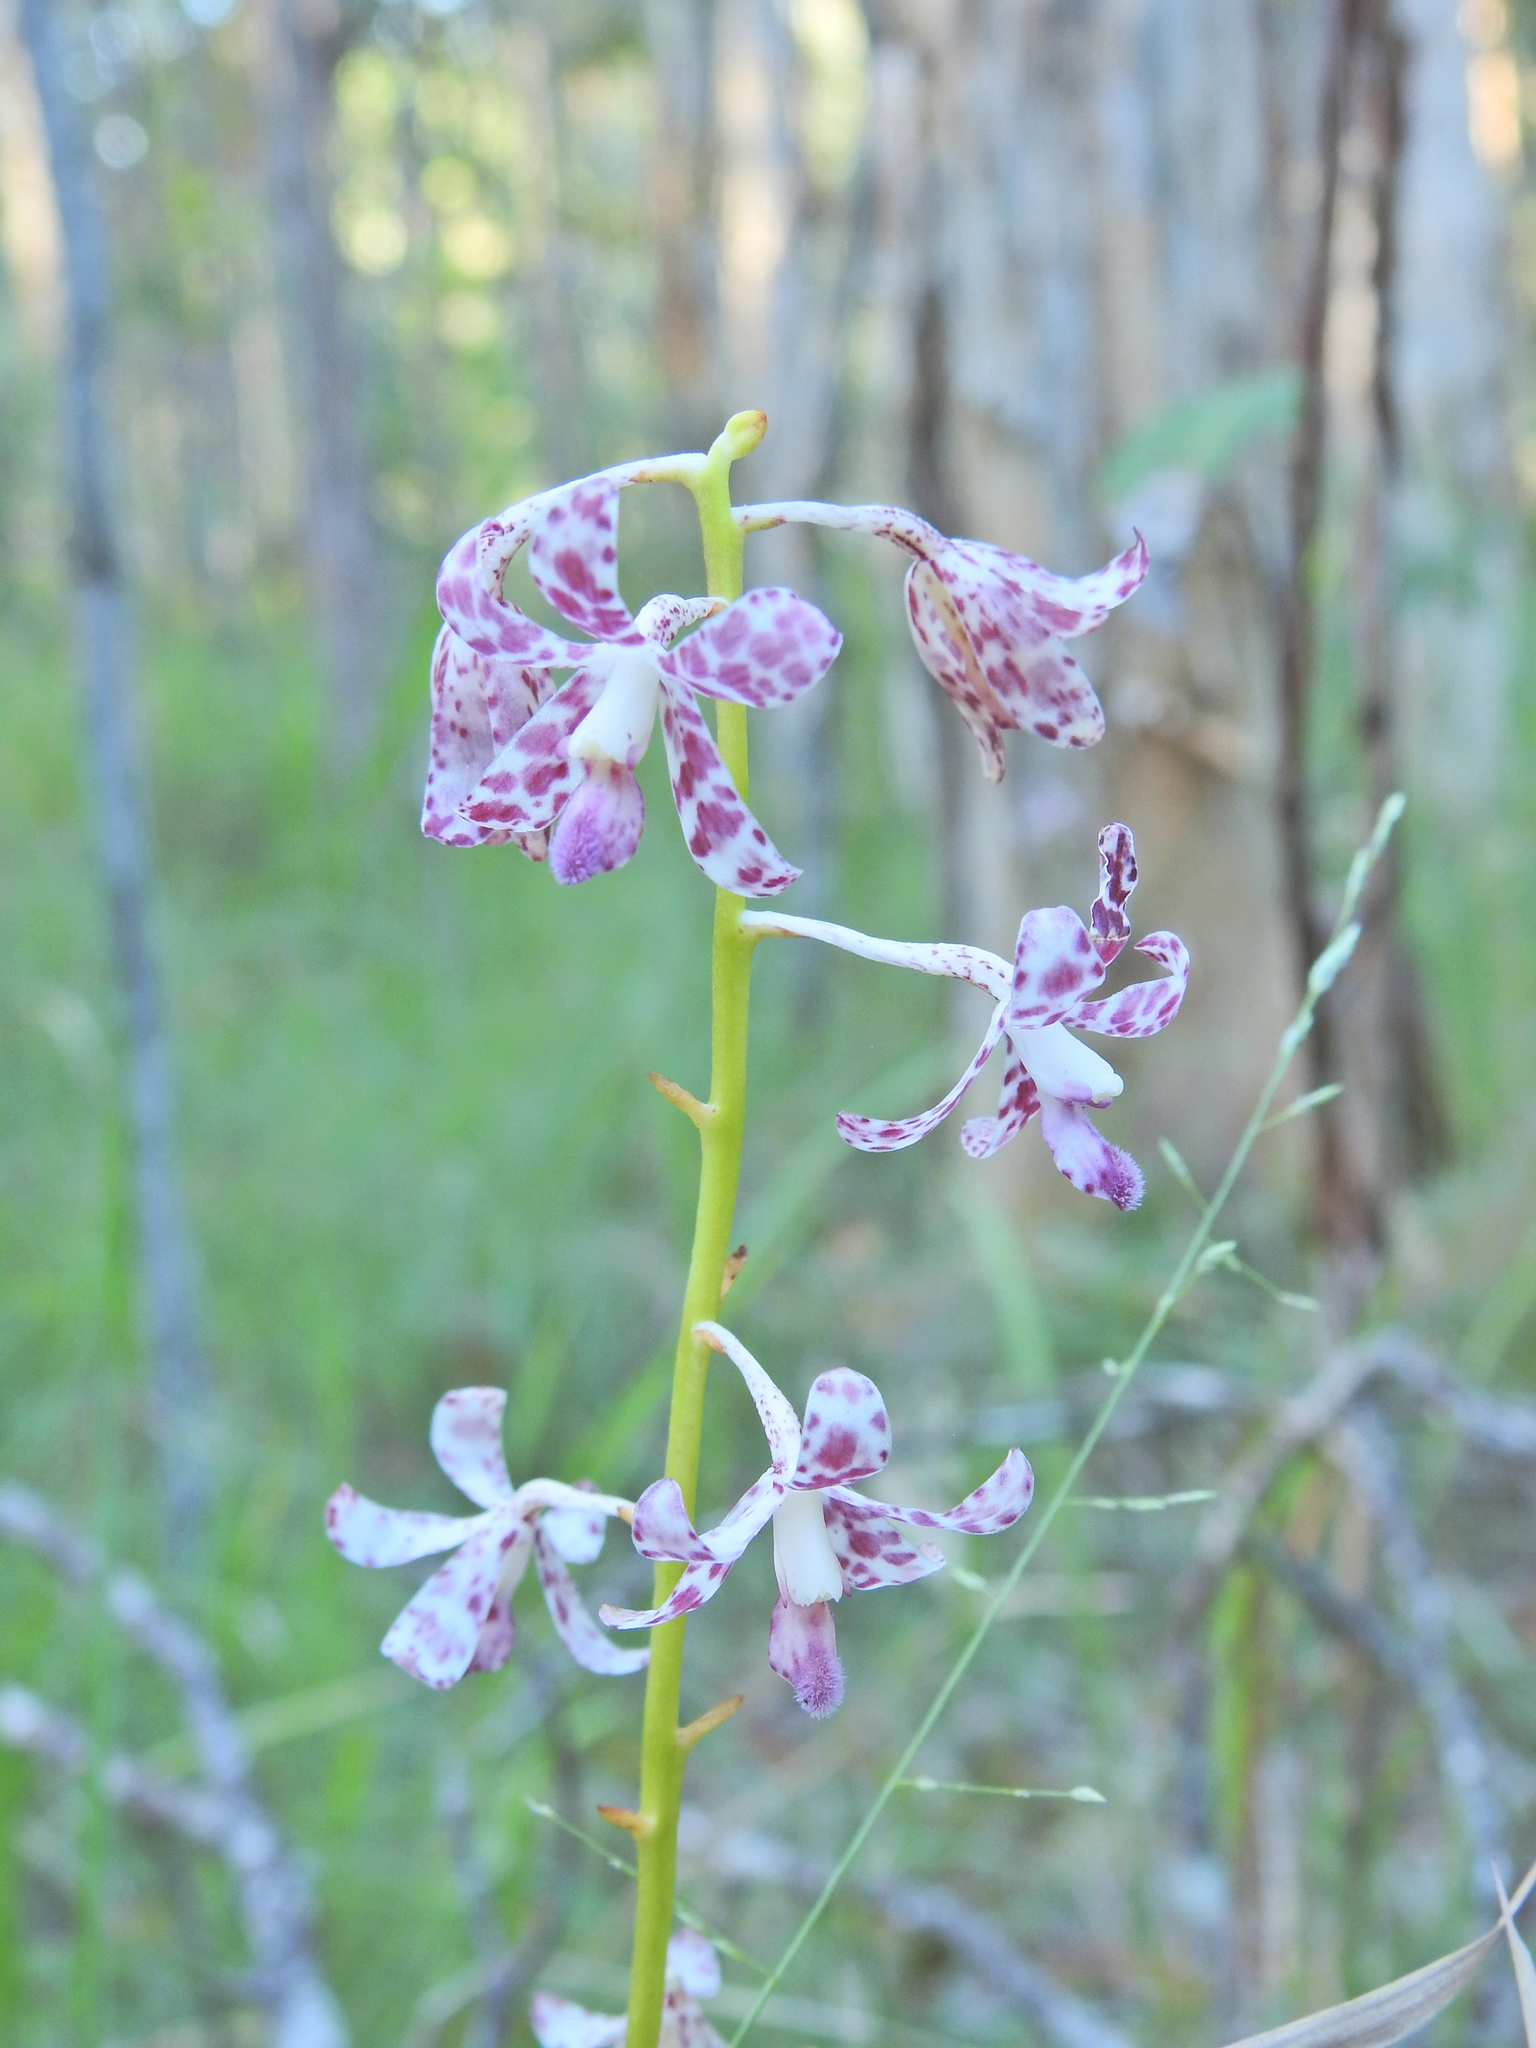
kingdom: Plantae
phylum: Tracheophyta
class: Liliopsida
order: Asparagales
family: Orchidaceae
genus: Dipodium
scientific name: Dipodium variegatum
